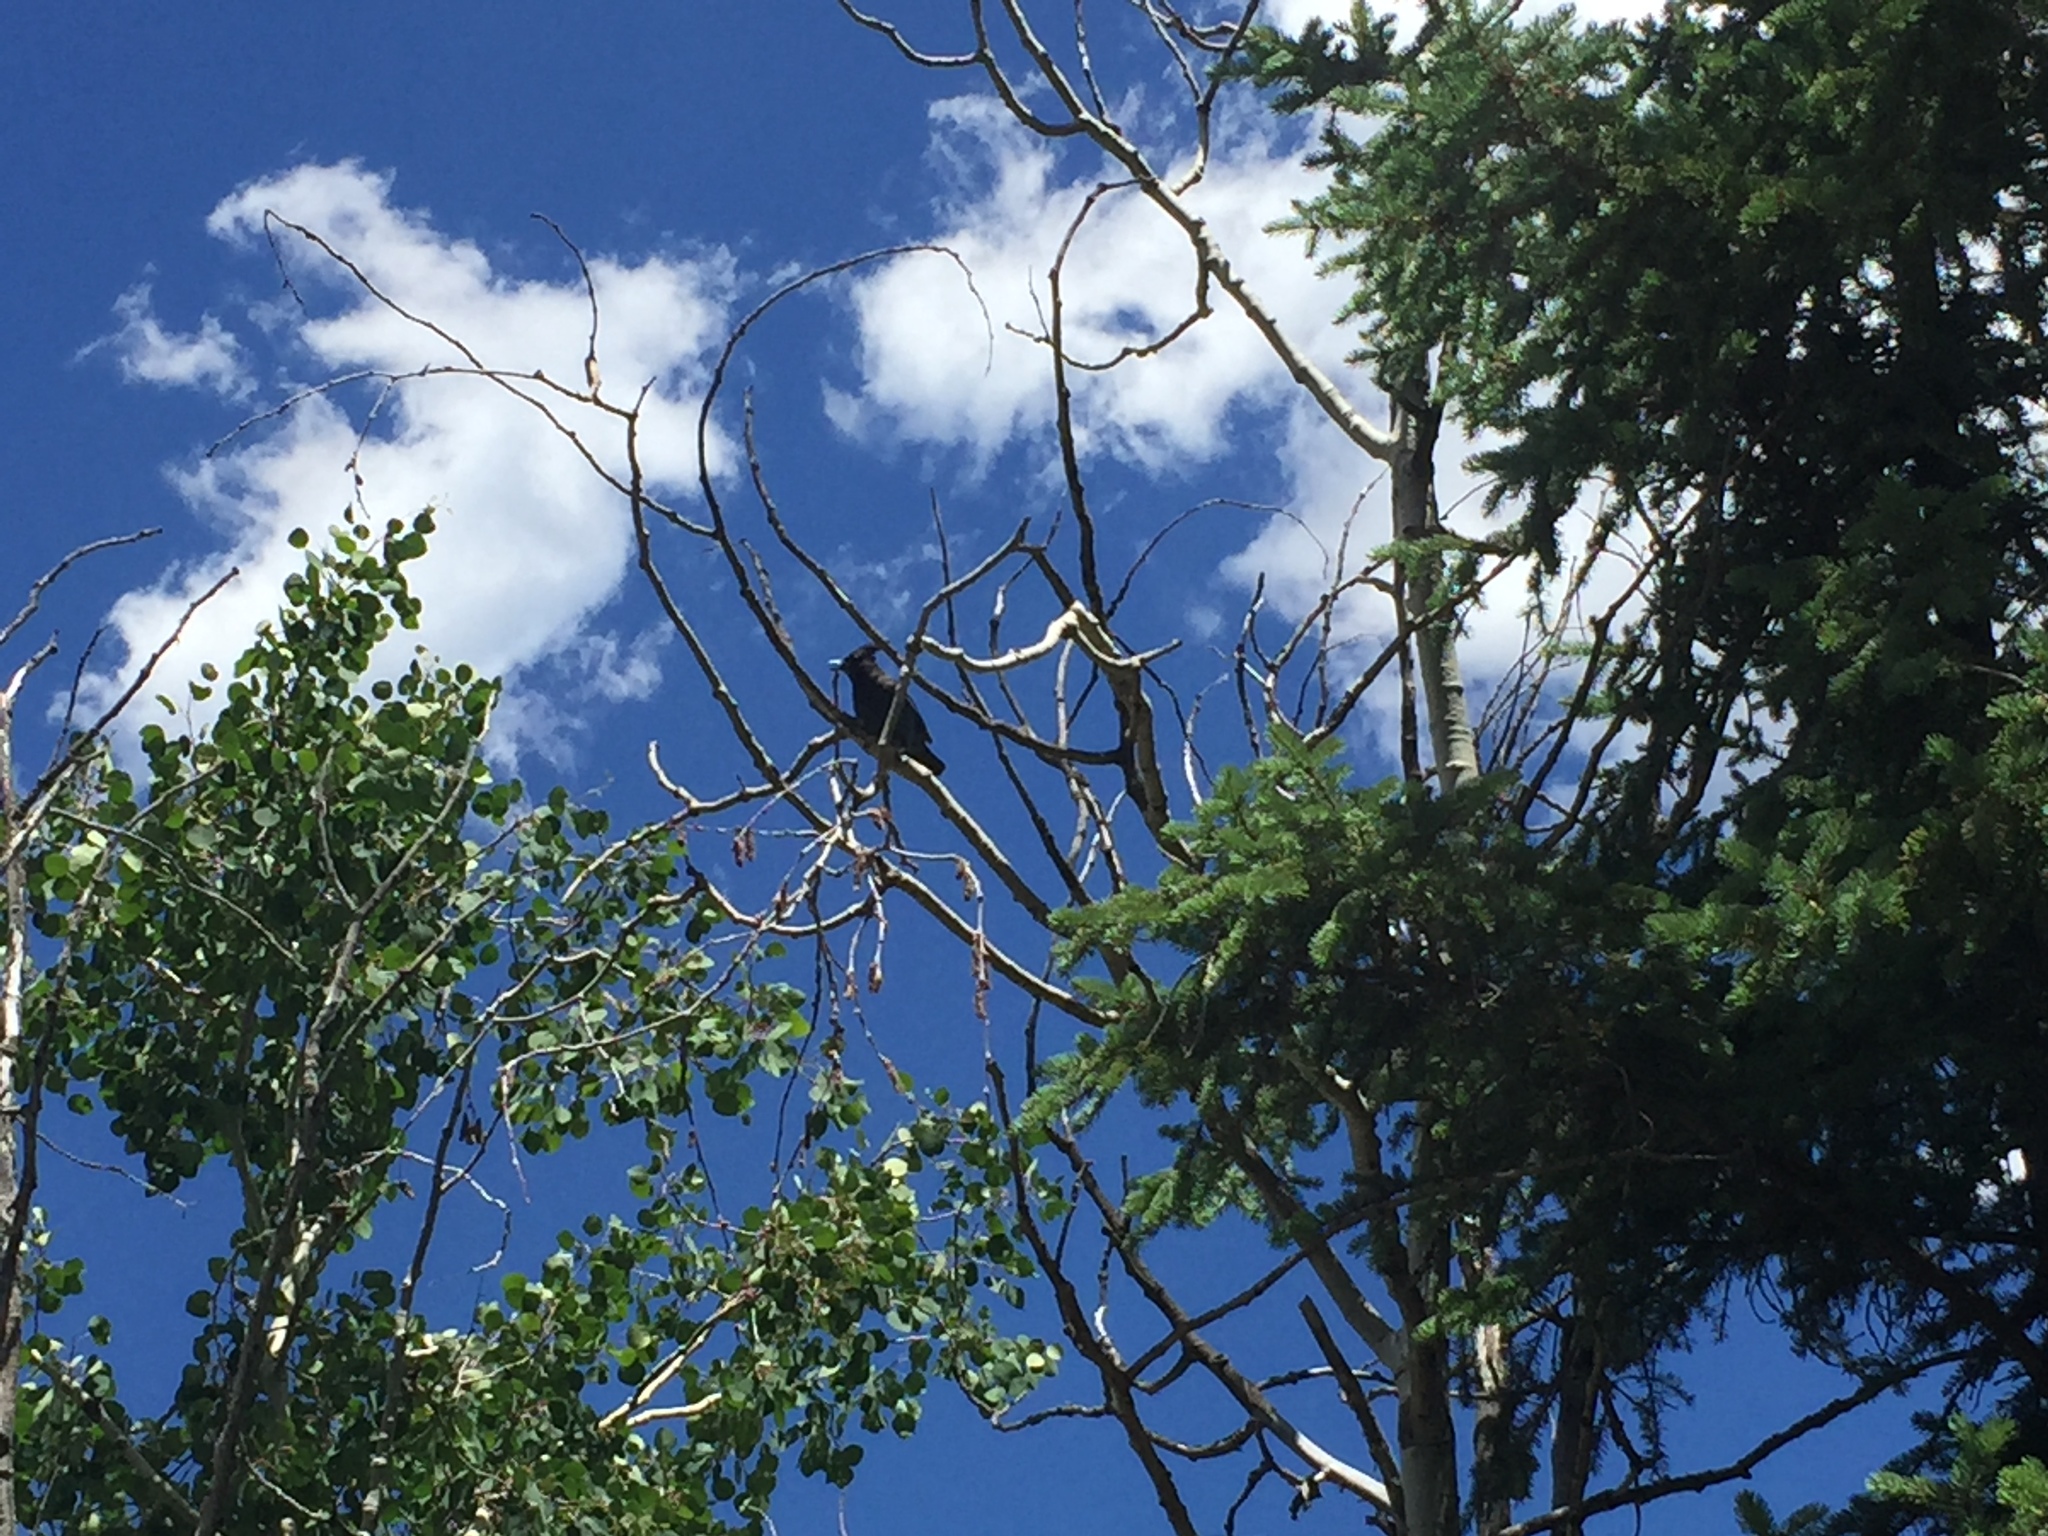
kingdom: Animalia
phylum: Chordata
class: Aves
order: Passeriformes
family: Corvidae
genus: Cyanocitta
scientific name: Cyanocitta stelleri
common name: Steller's jay
